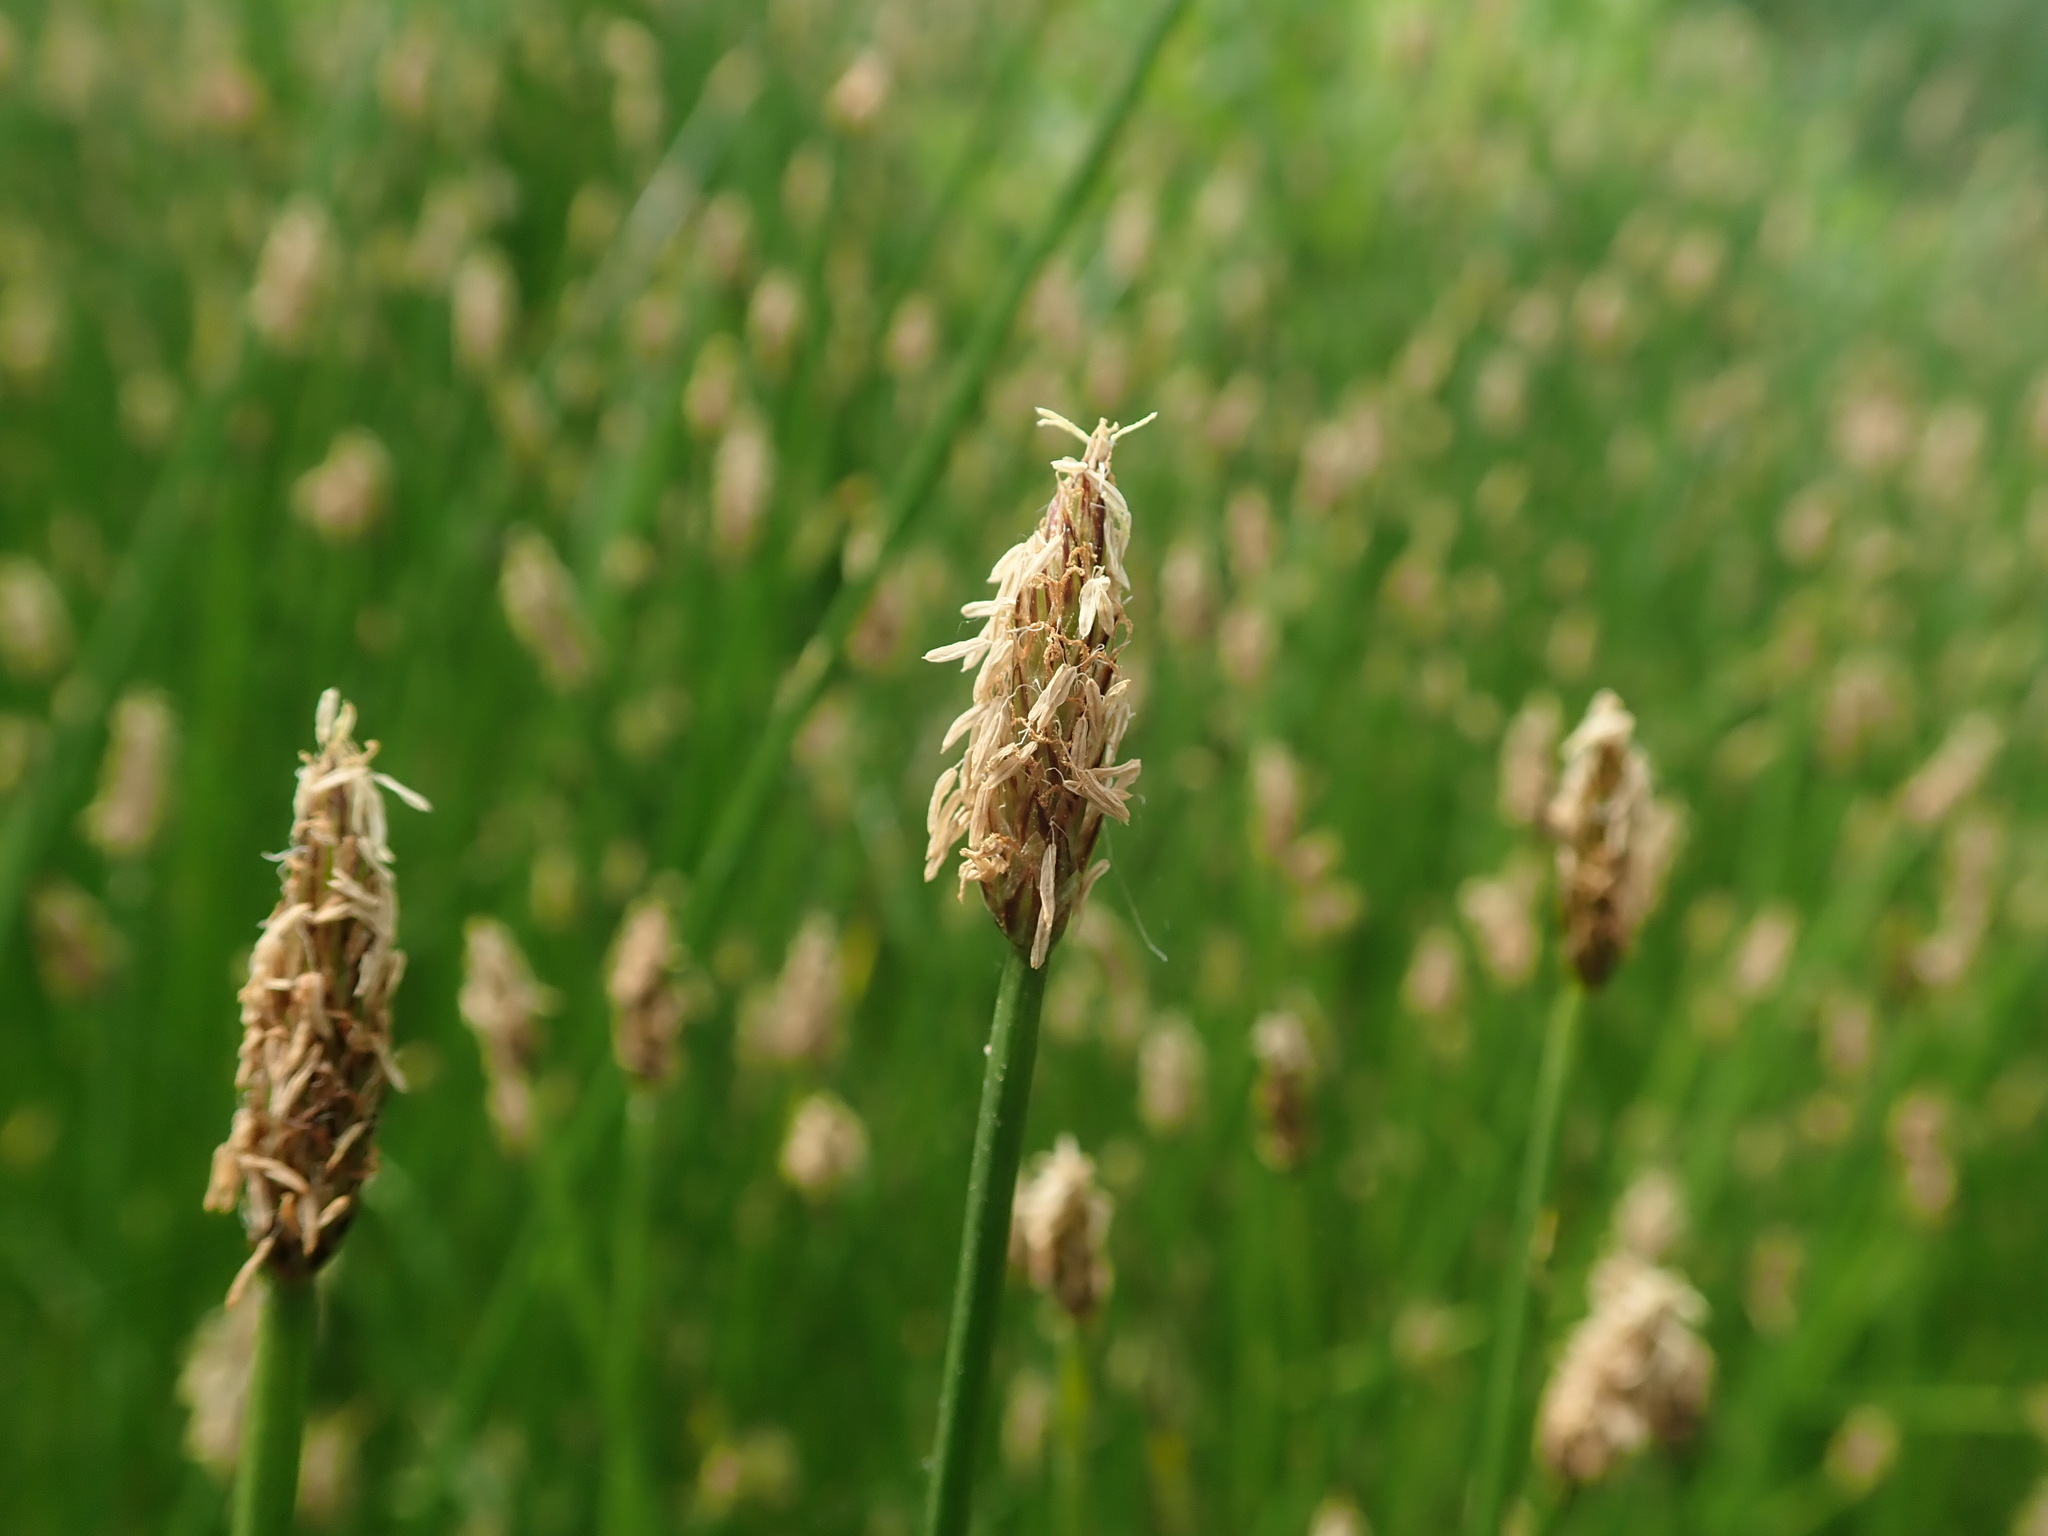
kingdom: Plantae
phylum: Tracheophyta
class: Liliopsida
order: Poales
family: Cyperaceae
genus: Eleocharis
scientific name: Eleocharis palustris
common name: Common spike-rush
